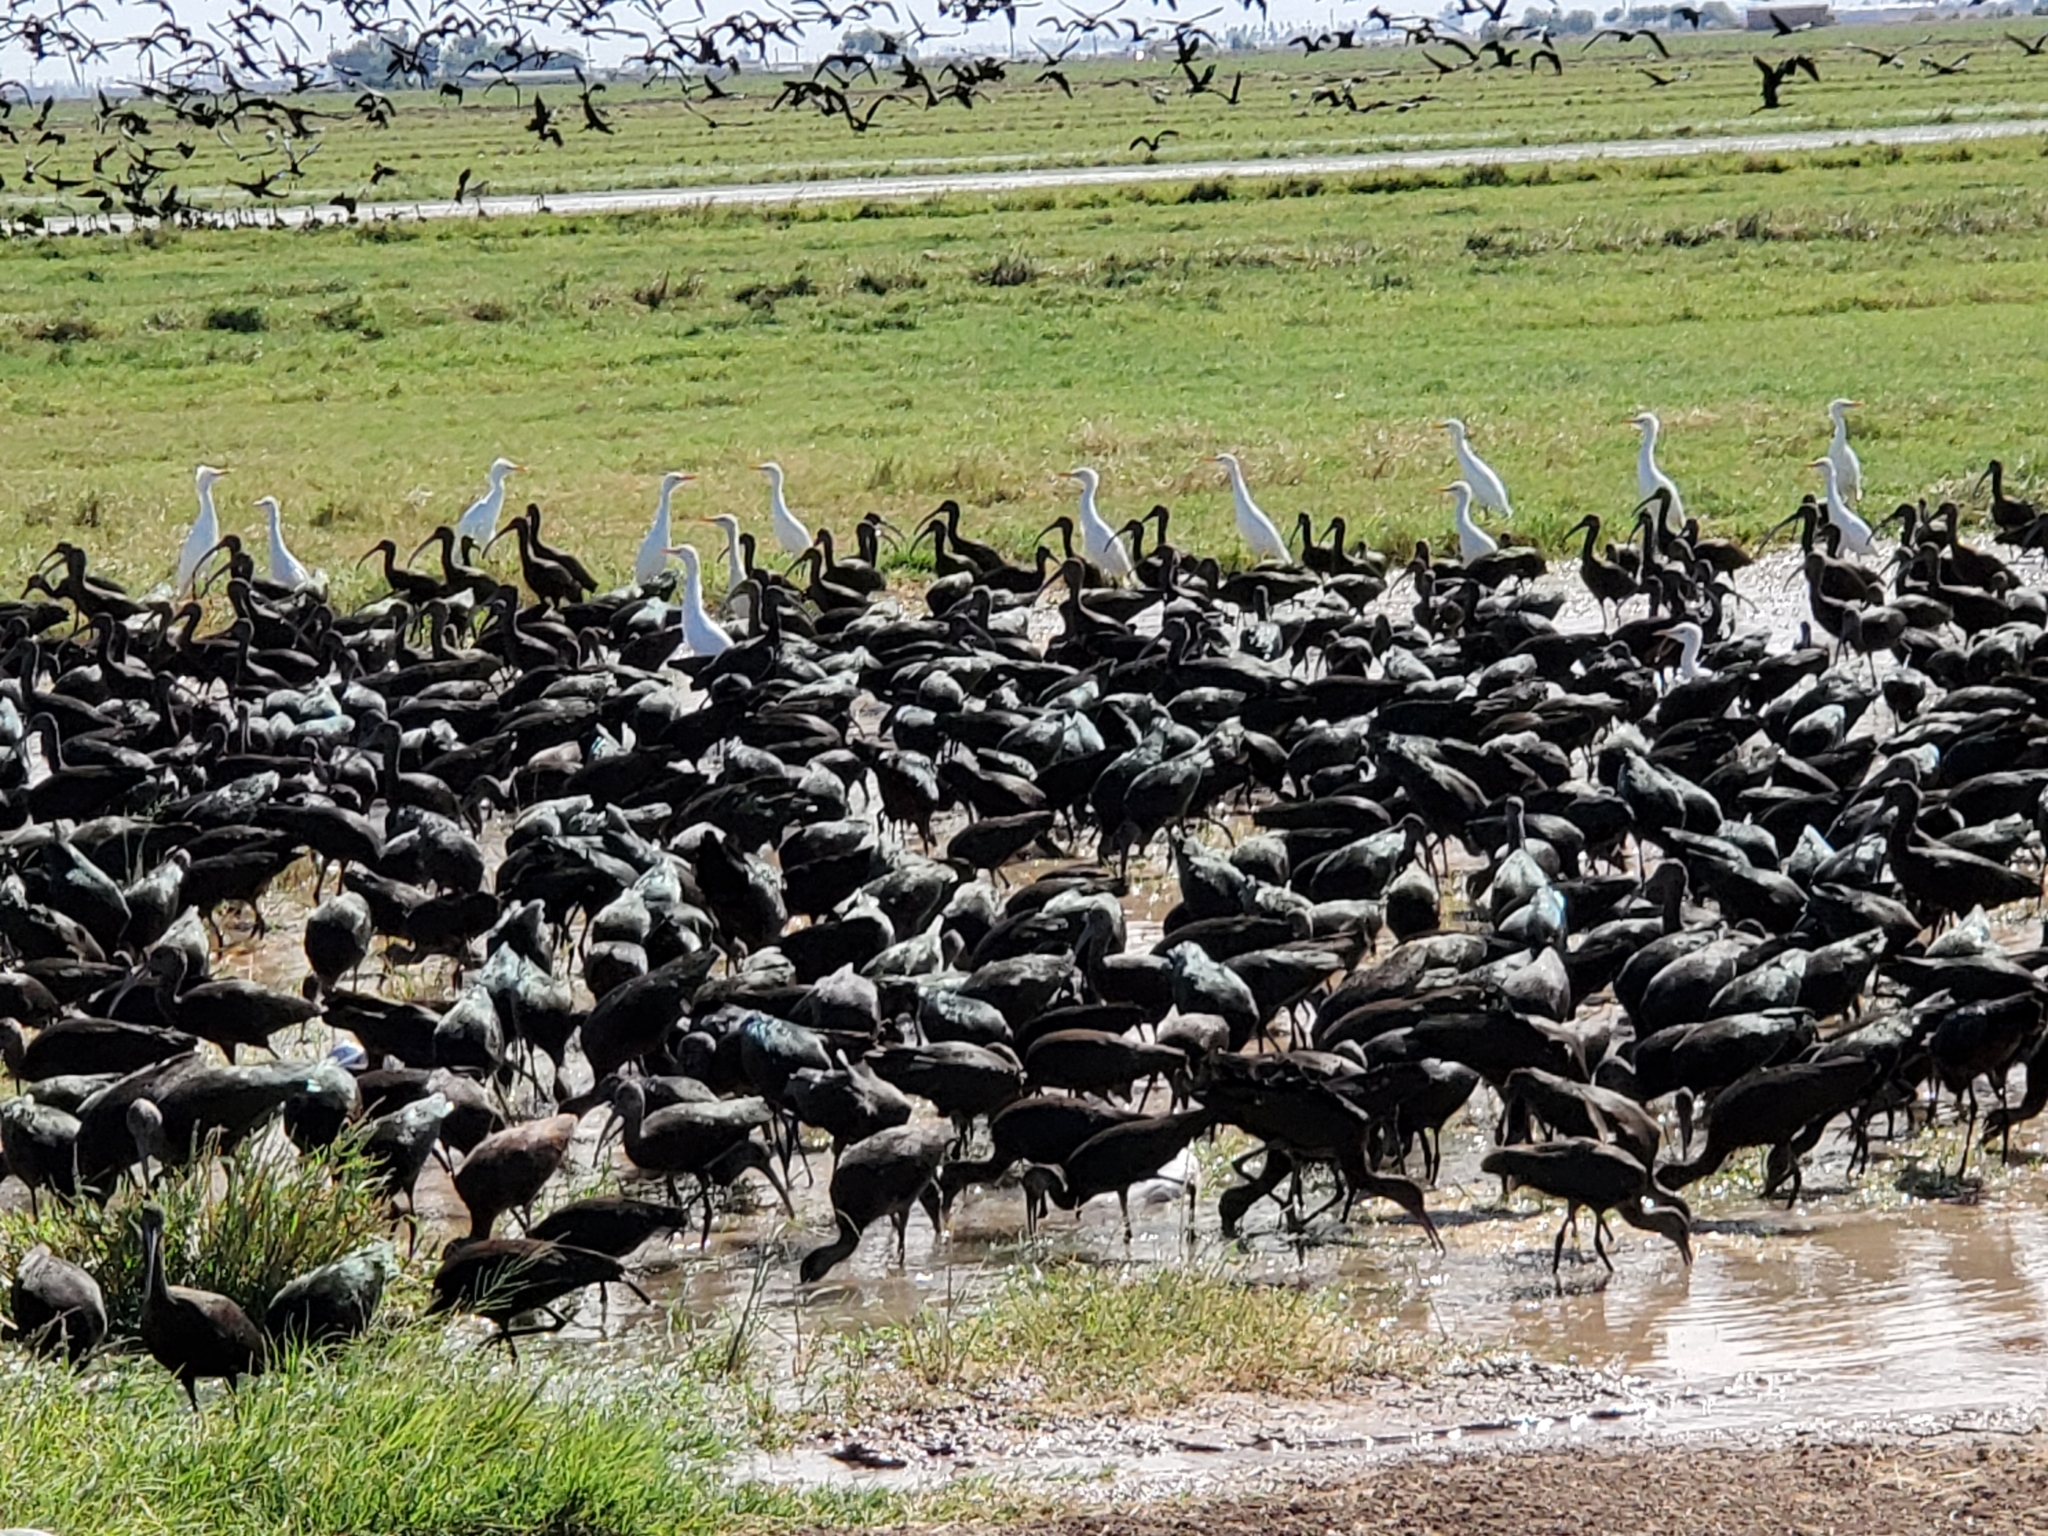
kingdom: Animalia
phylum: Chordata
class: Aves
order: Pelecaniformes
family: Threskiornithidae
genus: Plegadis
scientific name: Plegadis chihi
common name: White-faced ibis
